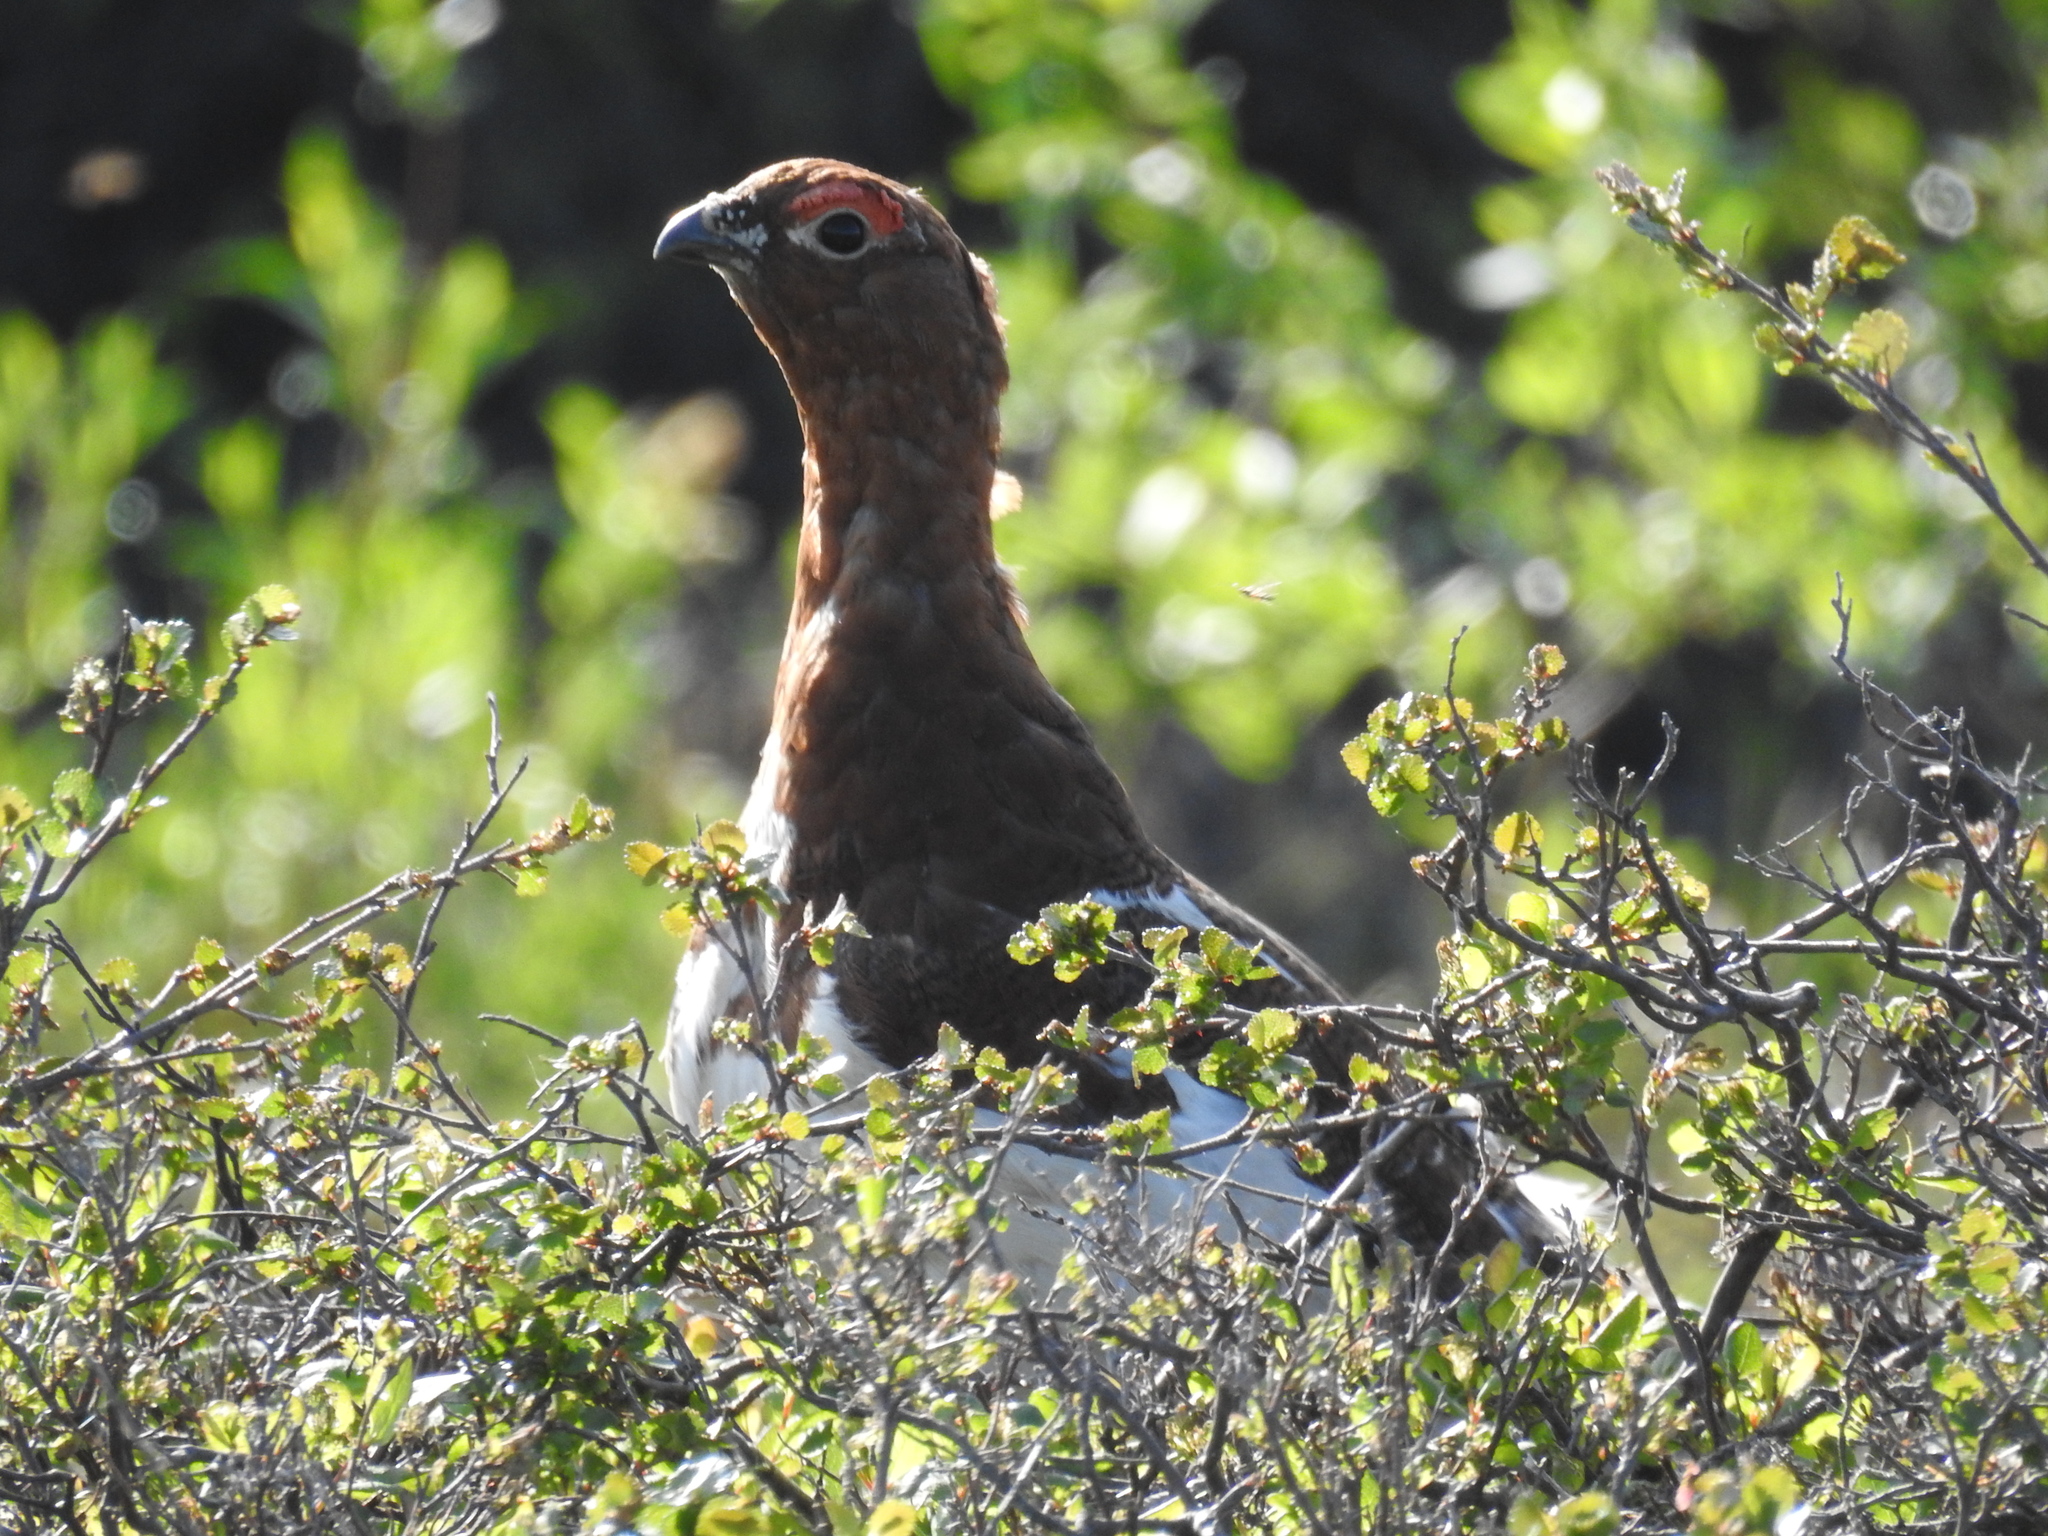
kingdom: Animalia
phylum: Chordata
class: Aves
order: Galliformes
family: Phasianidae
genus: Lagopus
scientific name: Lagopus lagopus
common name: Willow ptarmigan
